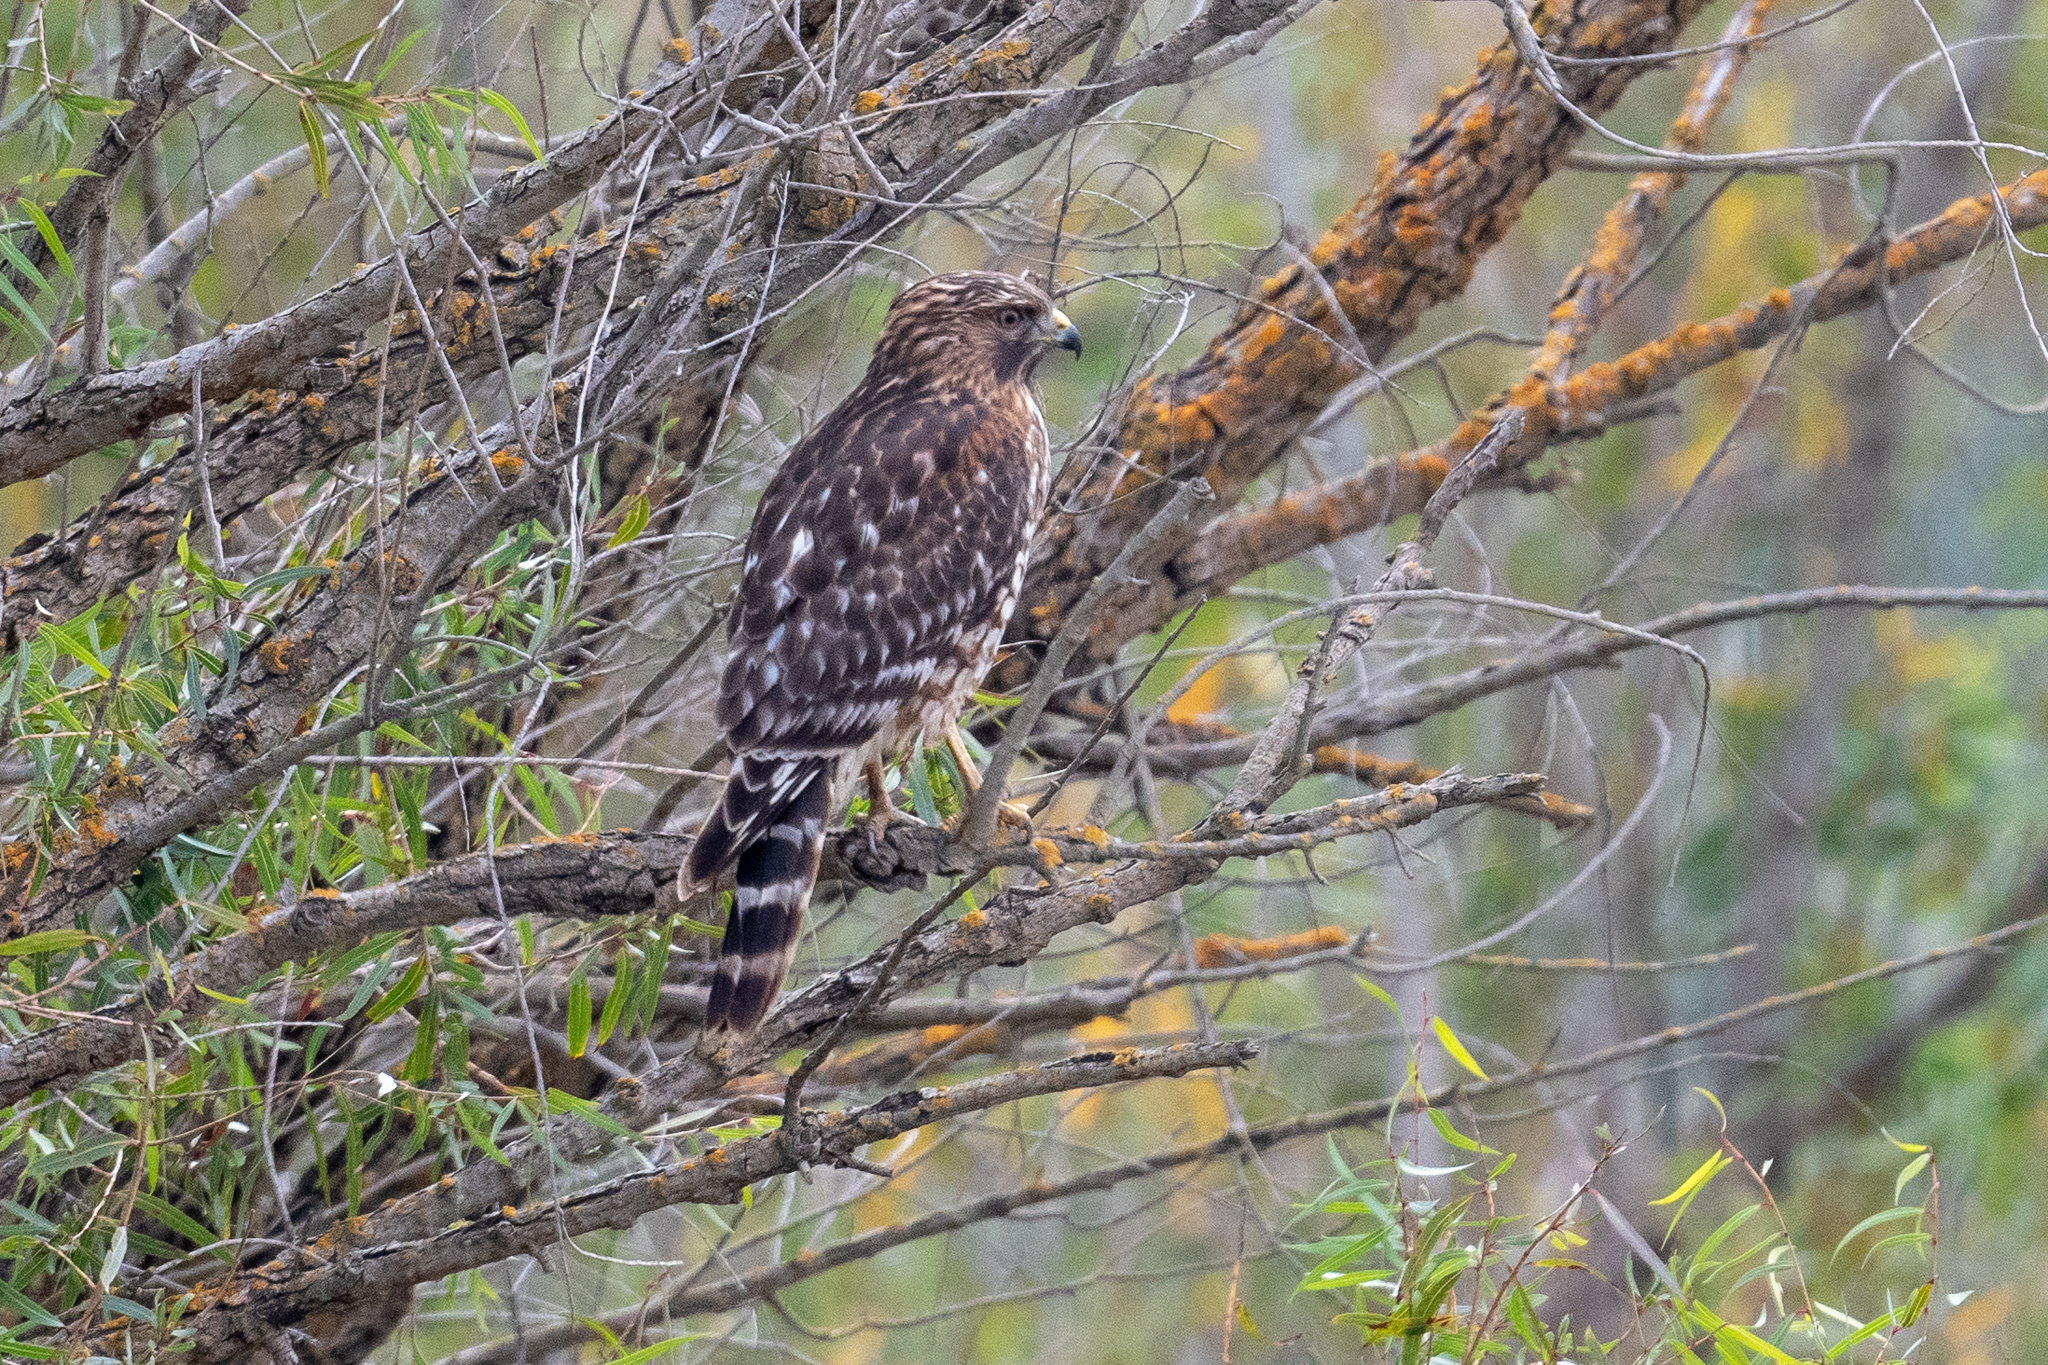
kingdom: Animalia
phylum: Chordata
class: Aves
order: Accipitriformes
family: Accipitridae
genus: Buteo
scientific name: Buteo lineatus
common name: Red-shouldered hawk
